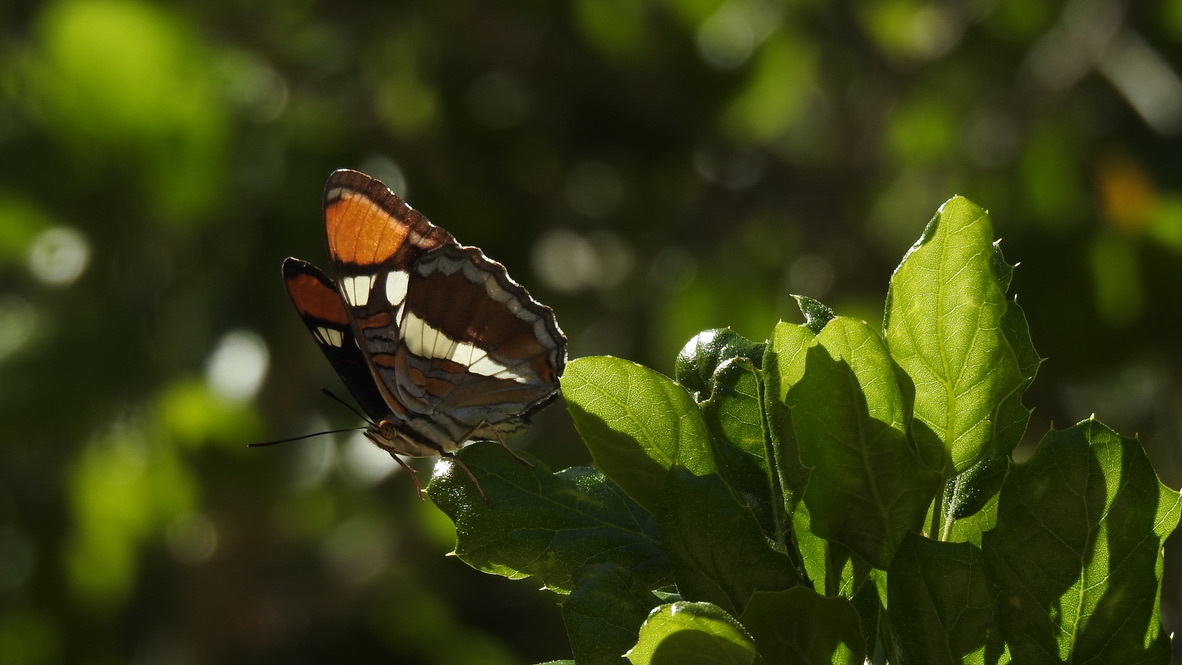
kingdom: Animalia
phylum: Arthropoda
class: Insecta
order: Lepidoptera
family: Nymphalidae
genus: Limenitis
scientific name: Limenitis bredowii
